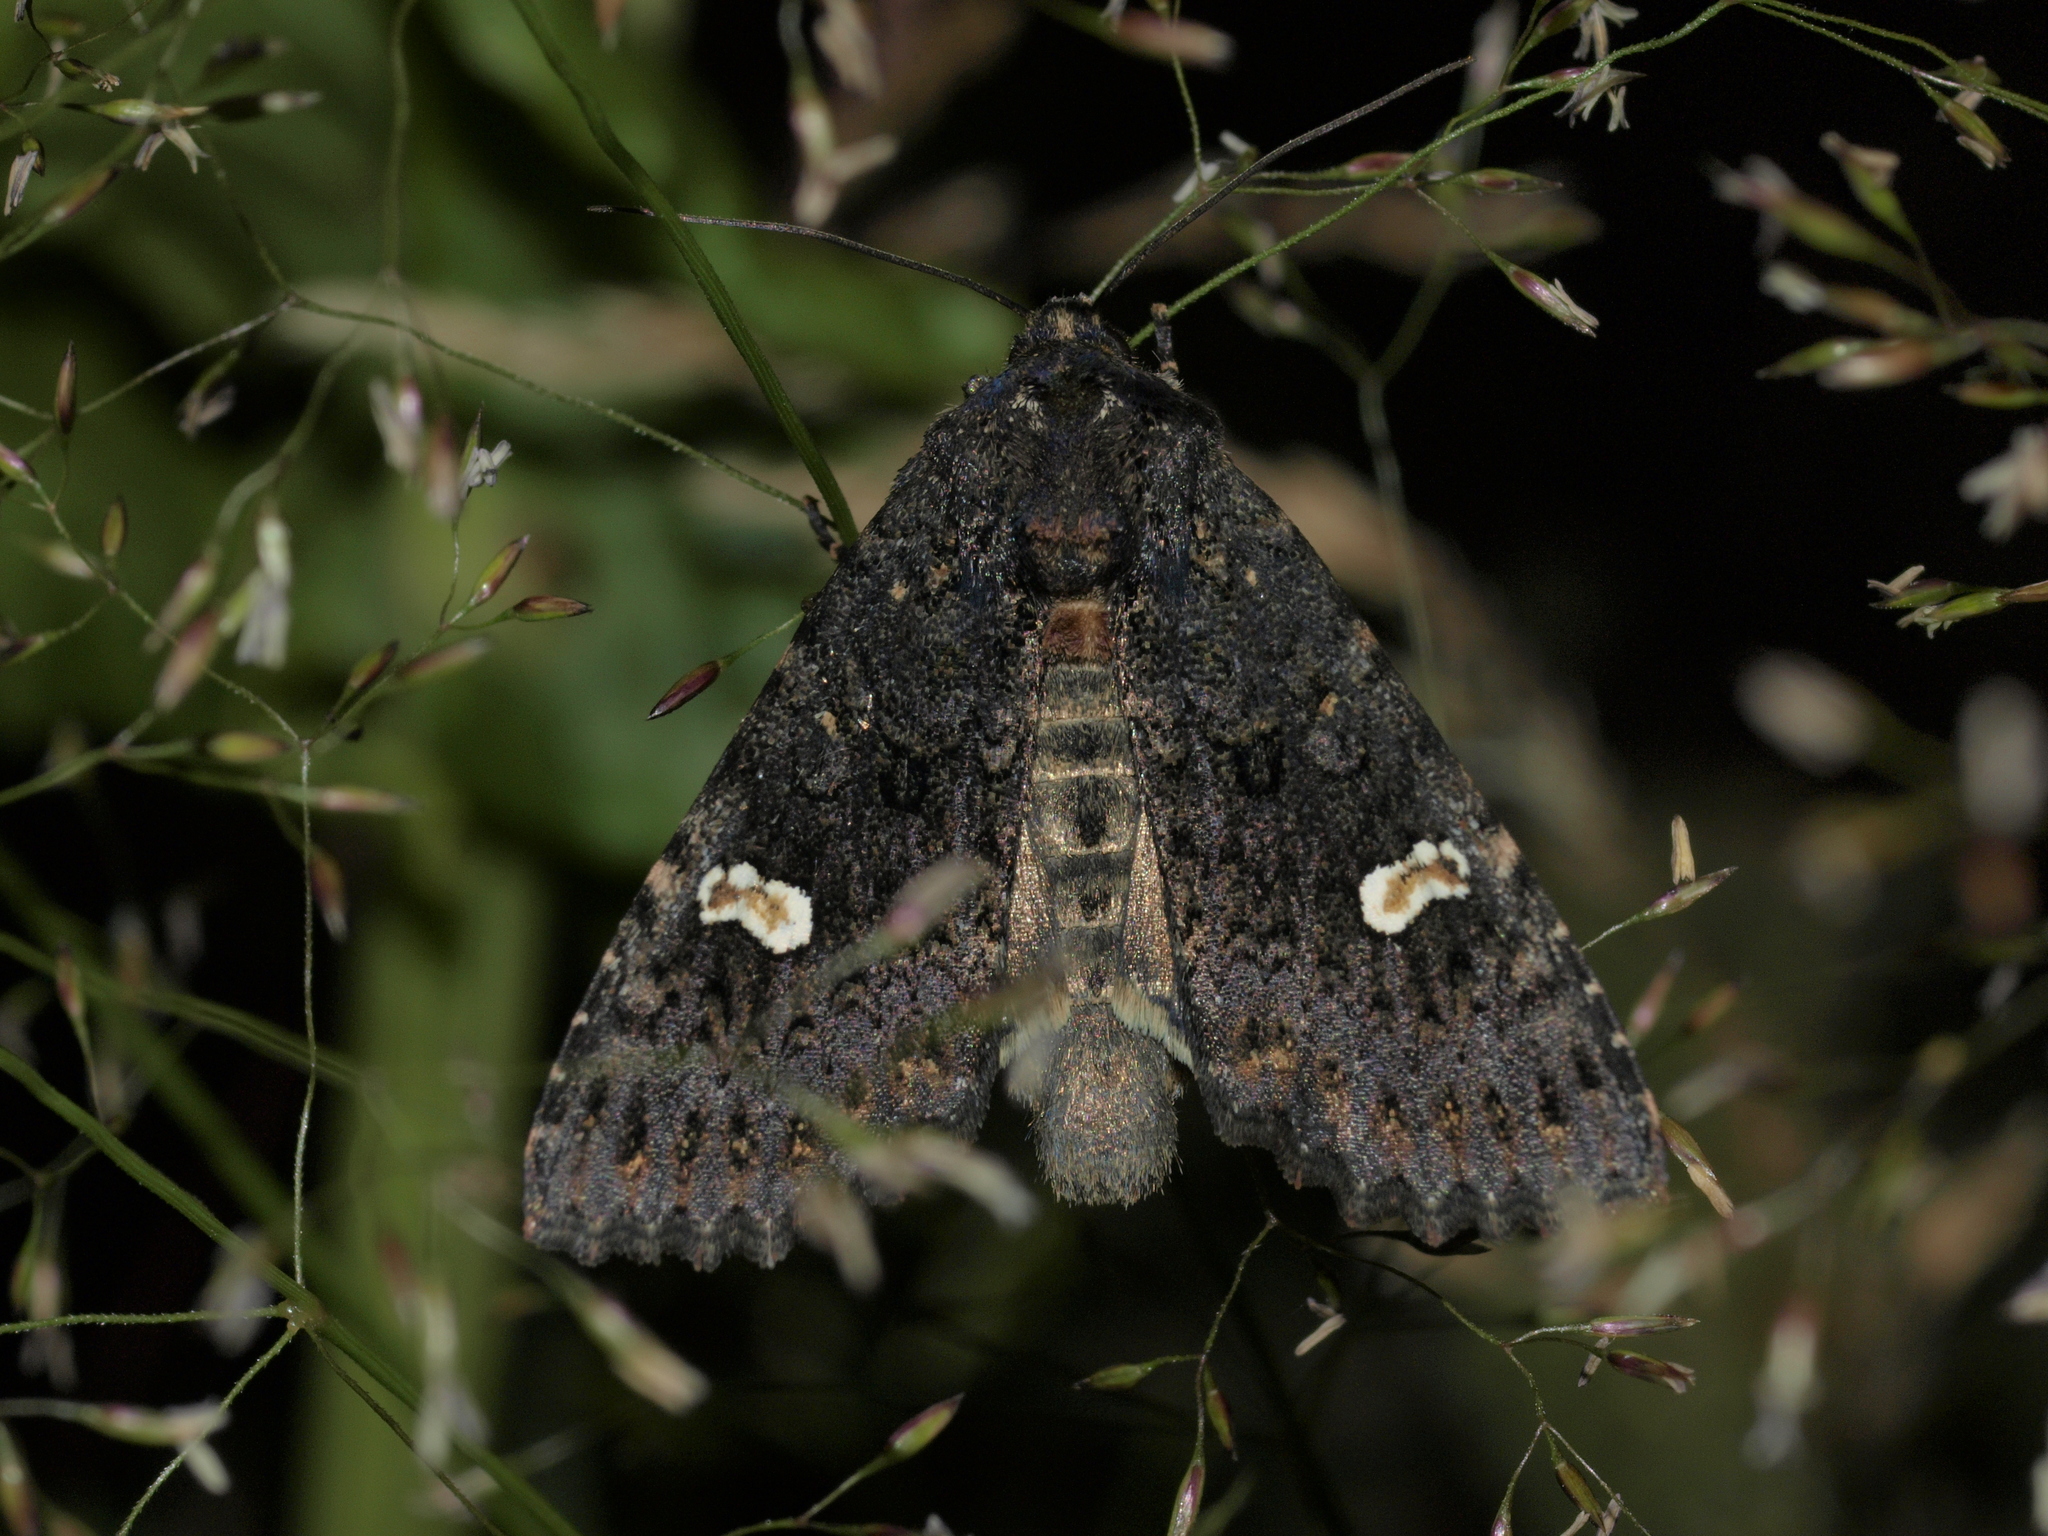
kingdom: Animalia
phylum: Arthropoda
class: Insecta
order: Lepidoptera
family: Noctuidae
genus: Melanchra
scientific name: Melanchra persicariae
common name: Dot moth
